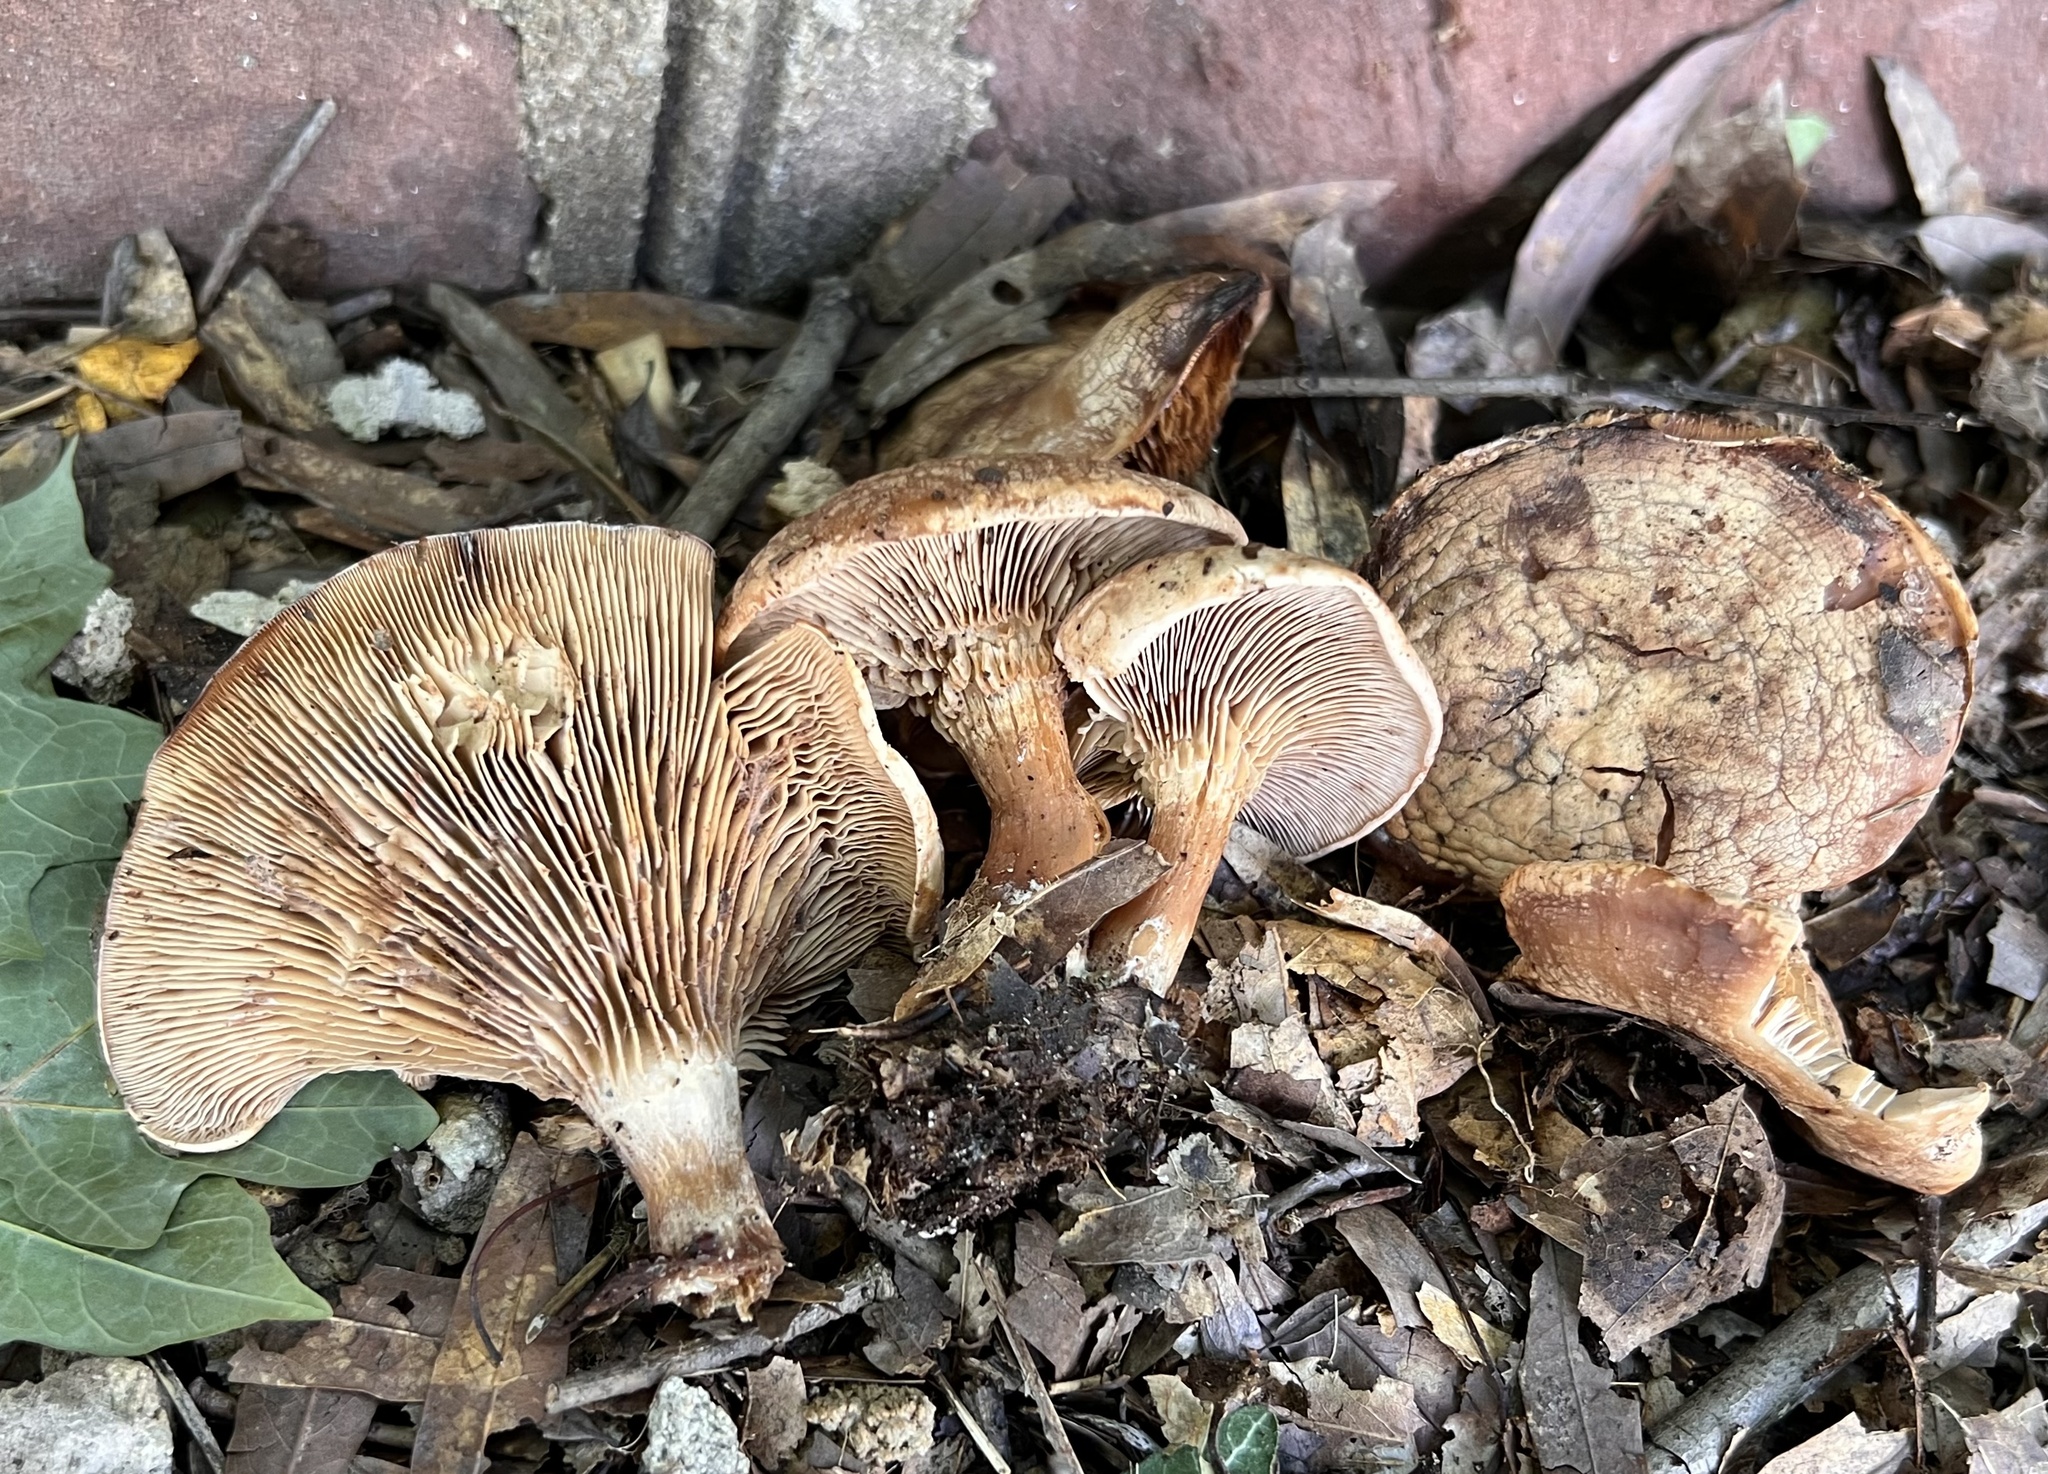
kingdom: Fungi
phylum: Basidiomycota
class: Agaricomycetes
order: Agaricales
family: Entolomataceae
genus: Rhodocybe
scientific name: Rhodocybe roseiavellanea
